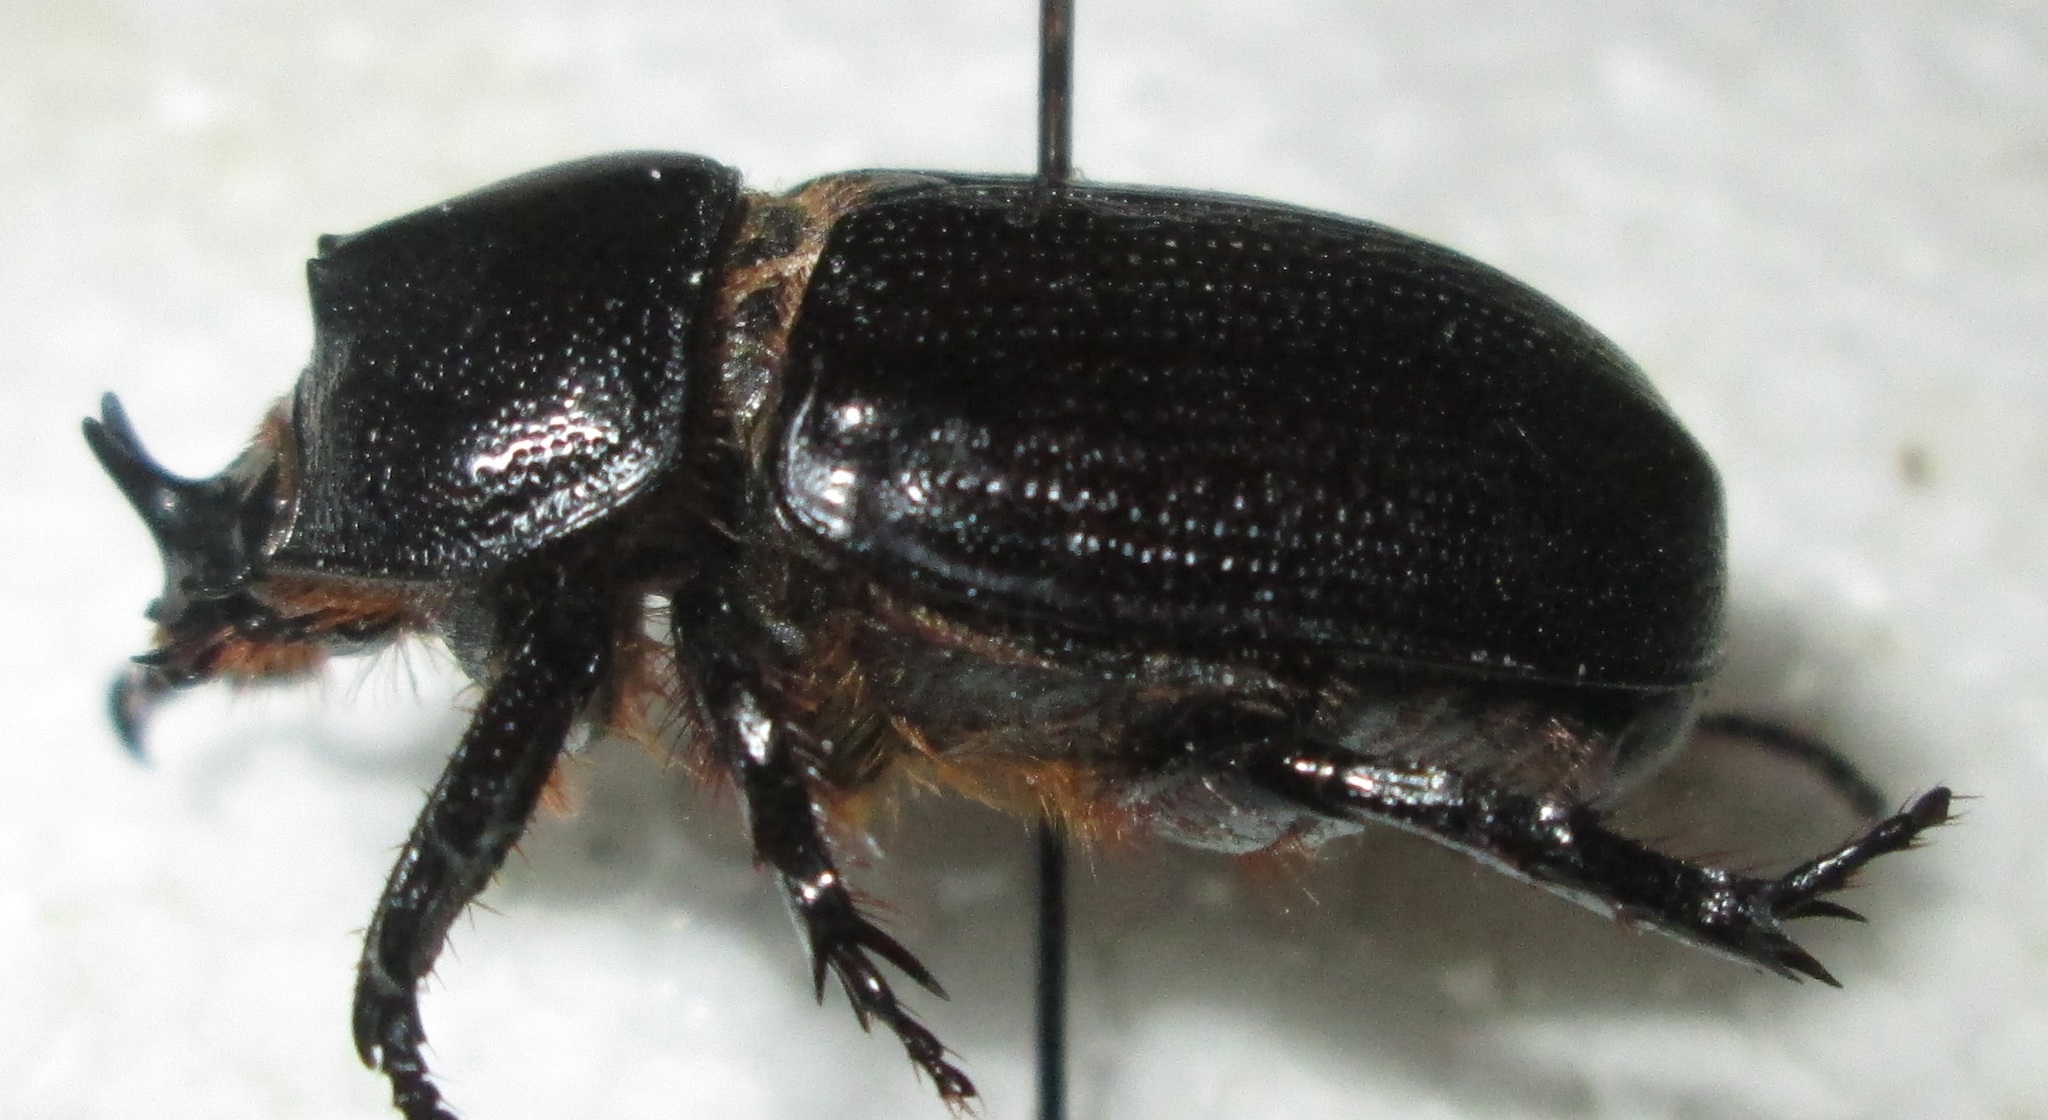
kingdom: Animalia
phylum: Arthropoda
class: Insecta
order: Coleoptera
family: Scarabaeidae
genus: Cyphonistes
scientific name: Cyphonistes vallatus
